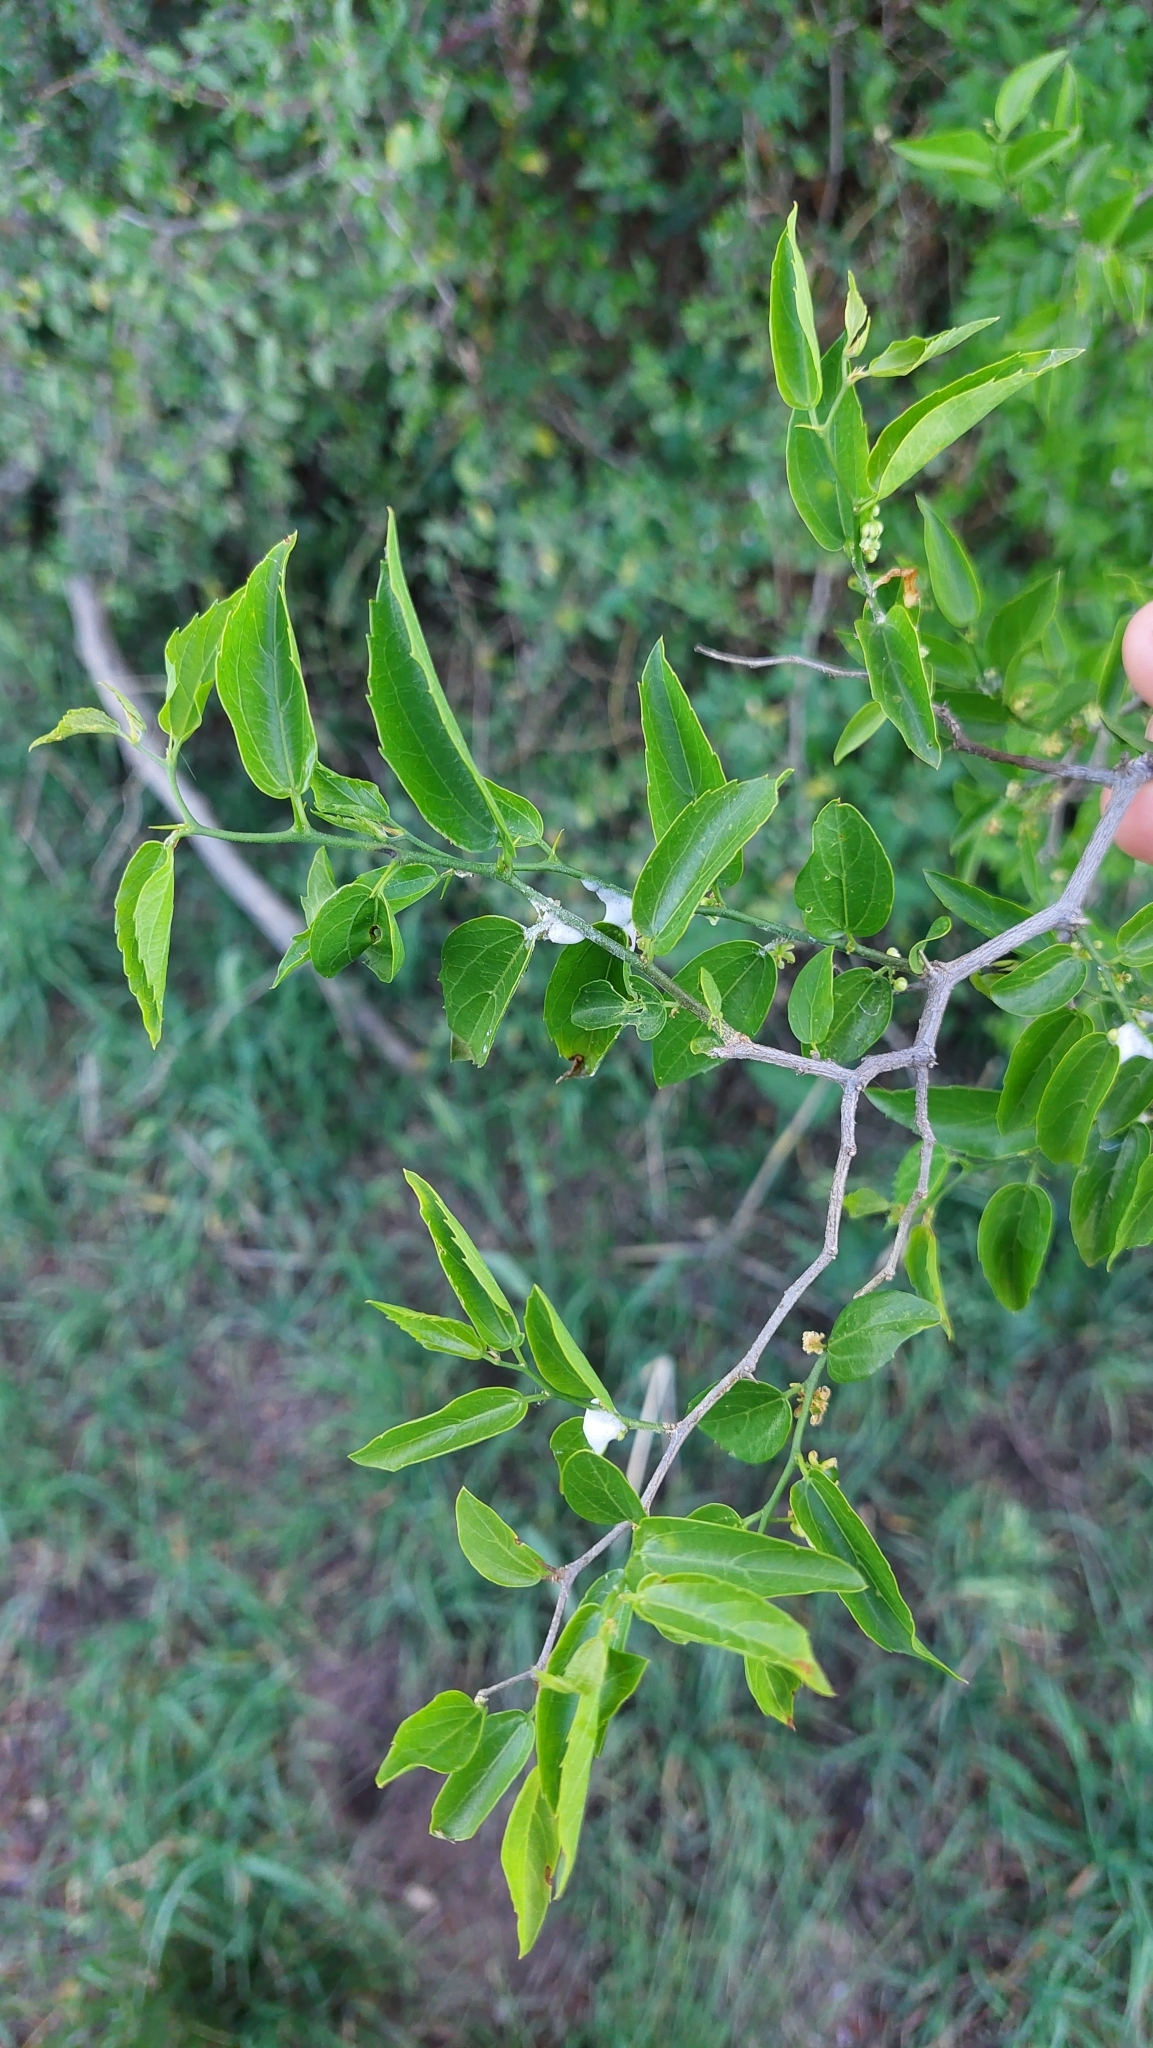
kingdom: Plantae
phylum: Tracheophyta
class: Magnoliopsida
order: Rosales
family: Cannabaceae
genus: Celtis
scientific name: Celtis tala
